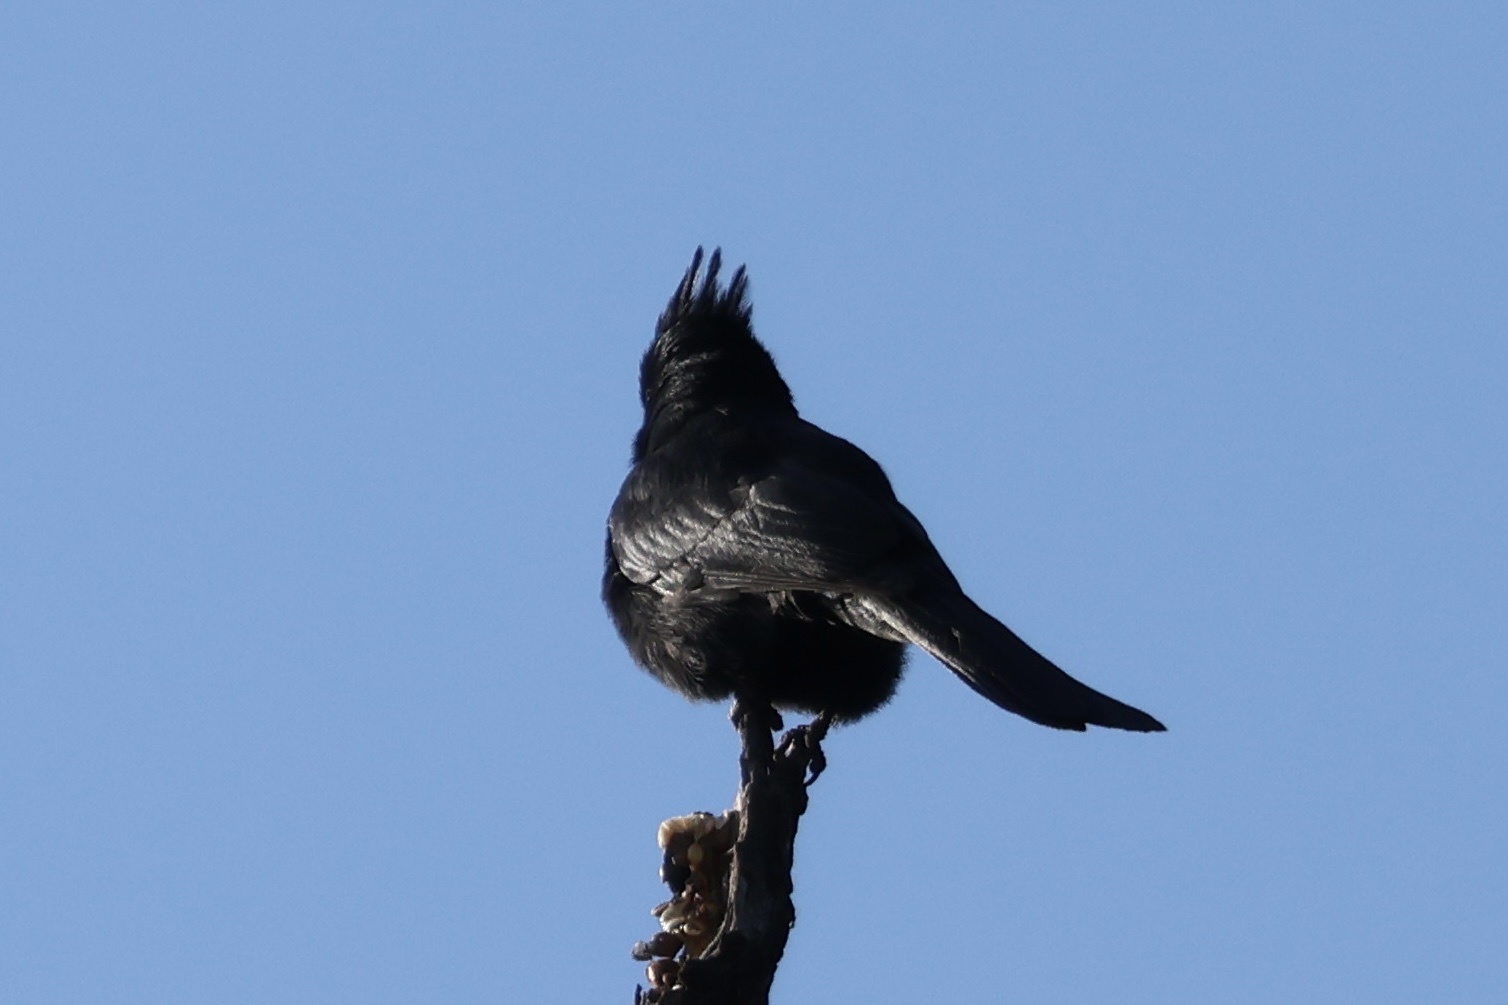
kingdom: Animalia
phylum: Chordata
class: Aves
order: Passeriformes
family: Ptilogonatidae
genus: Phainopepla
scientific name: Phainopepla nitens
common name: Phainopepla
